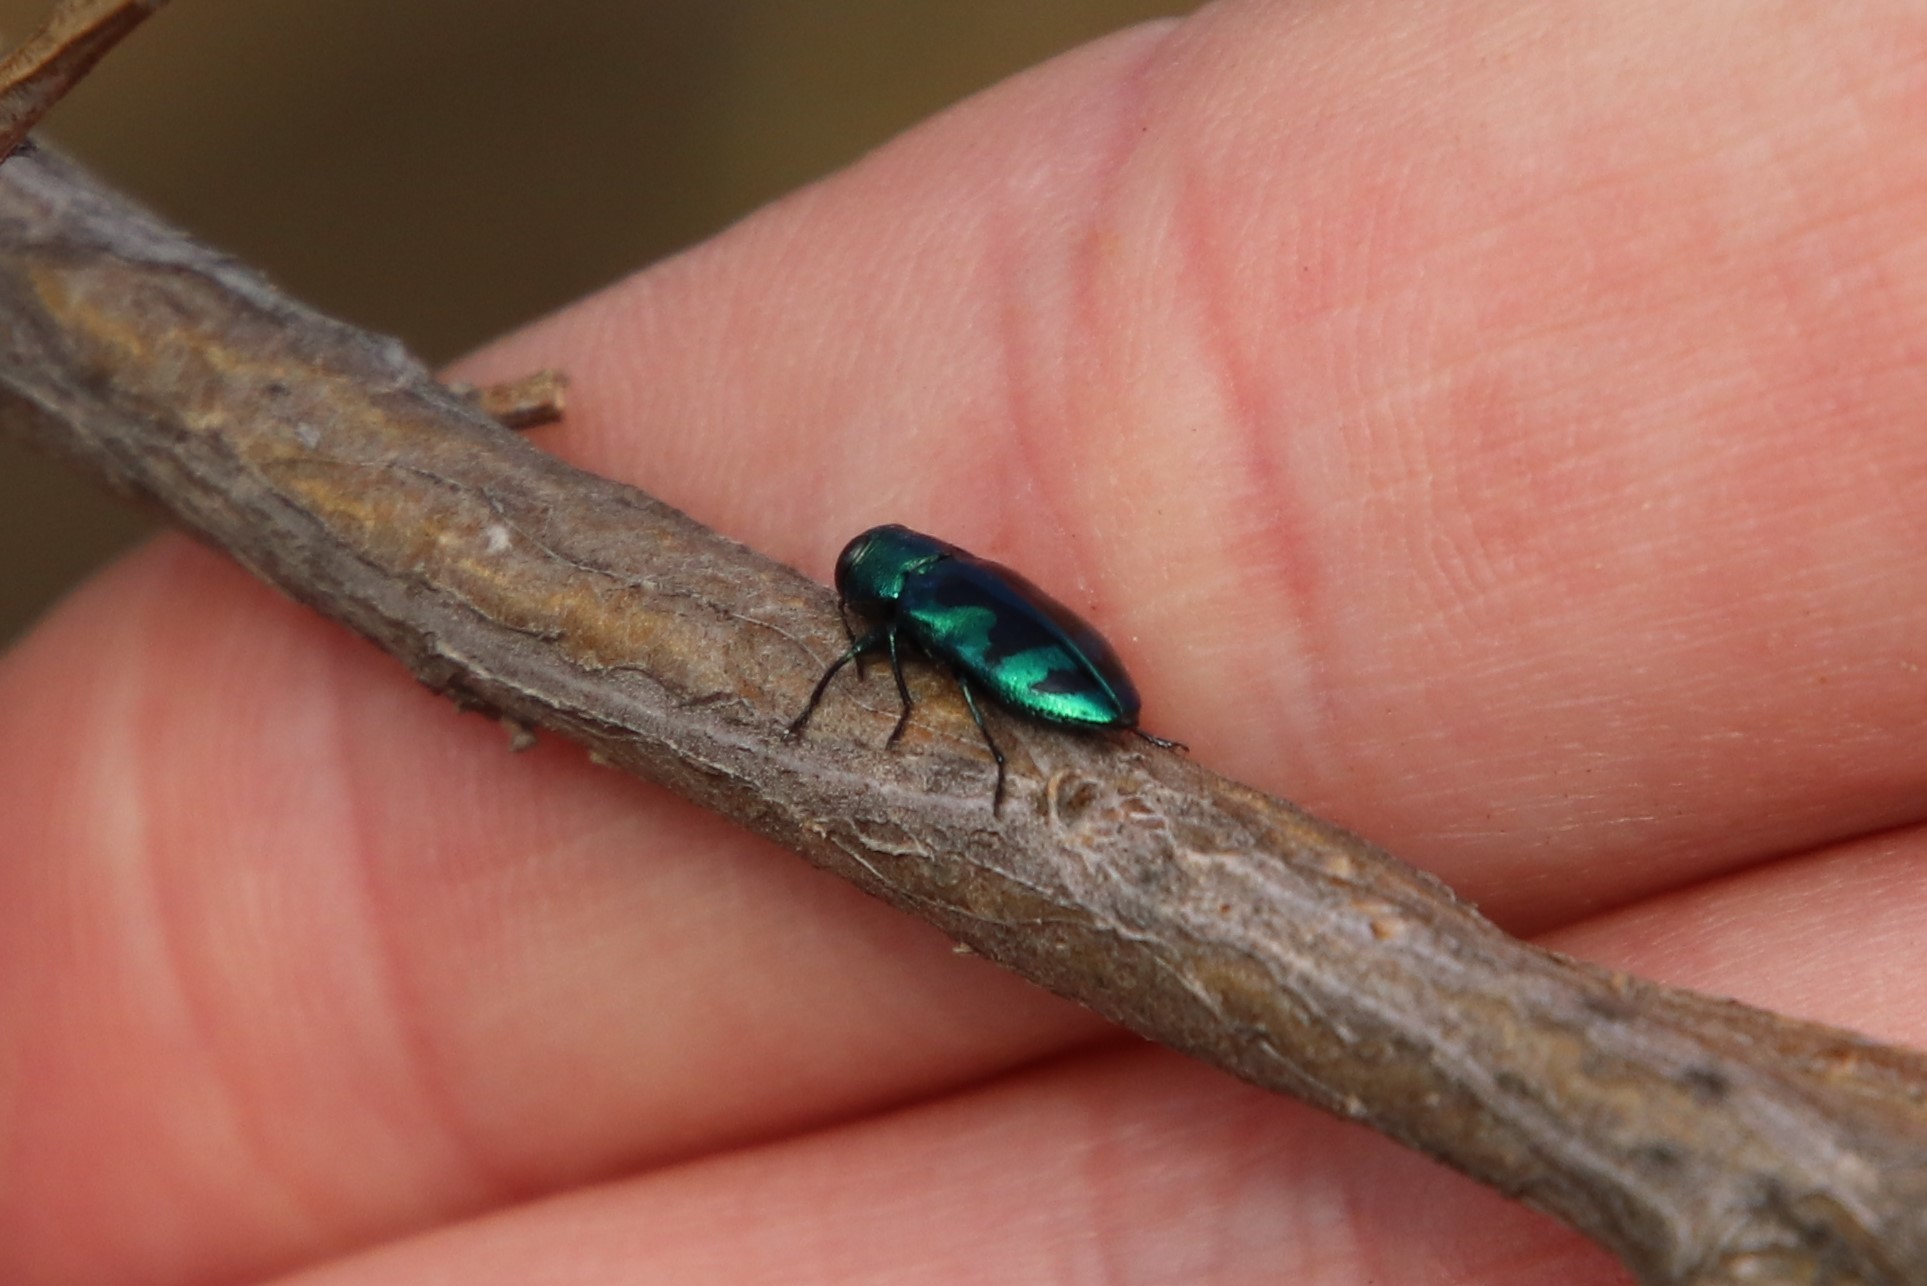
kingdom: Animalia
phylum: Arthropoda
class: Insecta
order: Coleoptera
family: Buprestidae
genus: Chrysobothris
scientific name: Chrysobothris lucana
